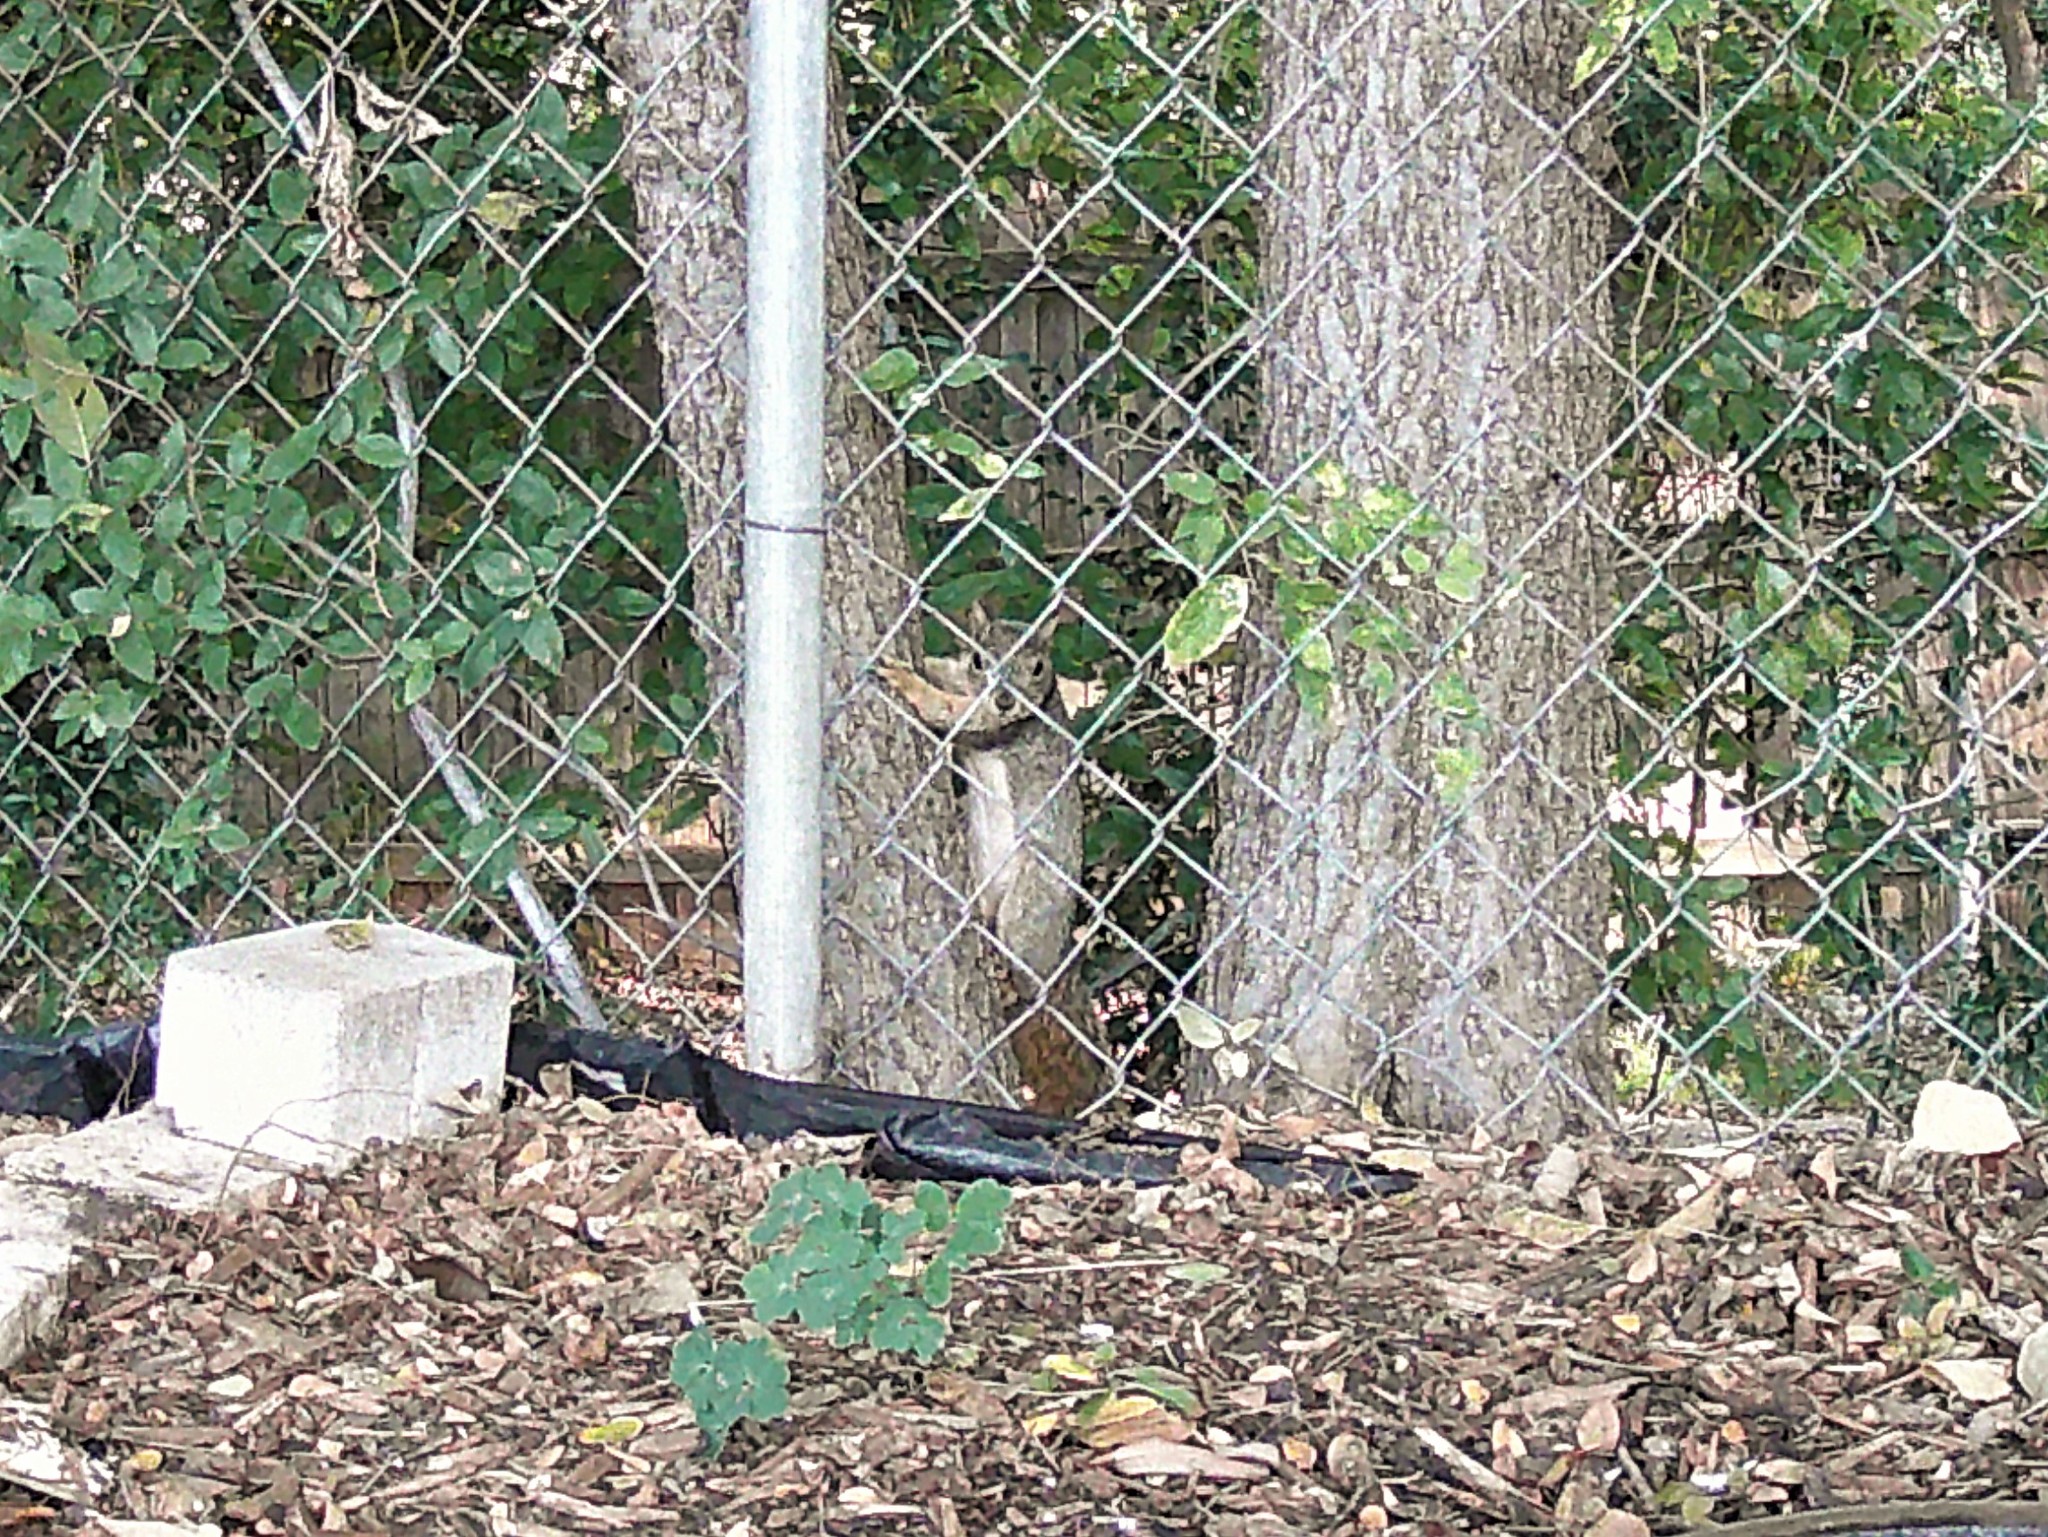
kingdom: Animalia
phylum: Chordata
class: Mammalia
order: Rodentia
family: Sciuridae
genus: Sciurus
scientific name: Sciurus niger
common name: Fox squirrel
